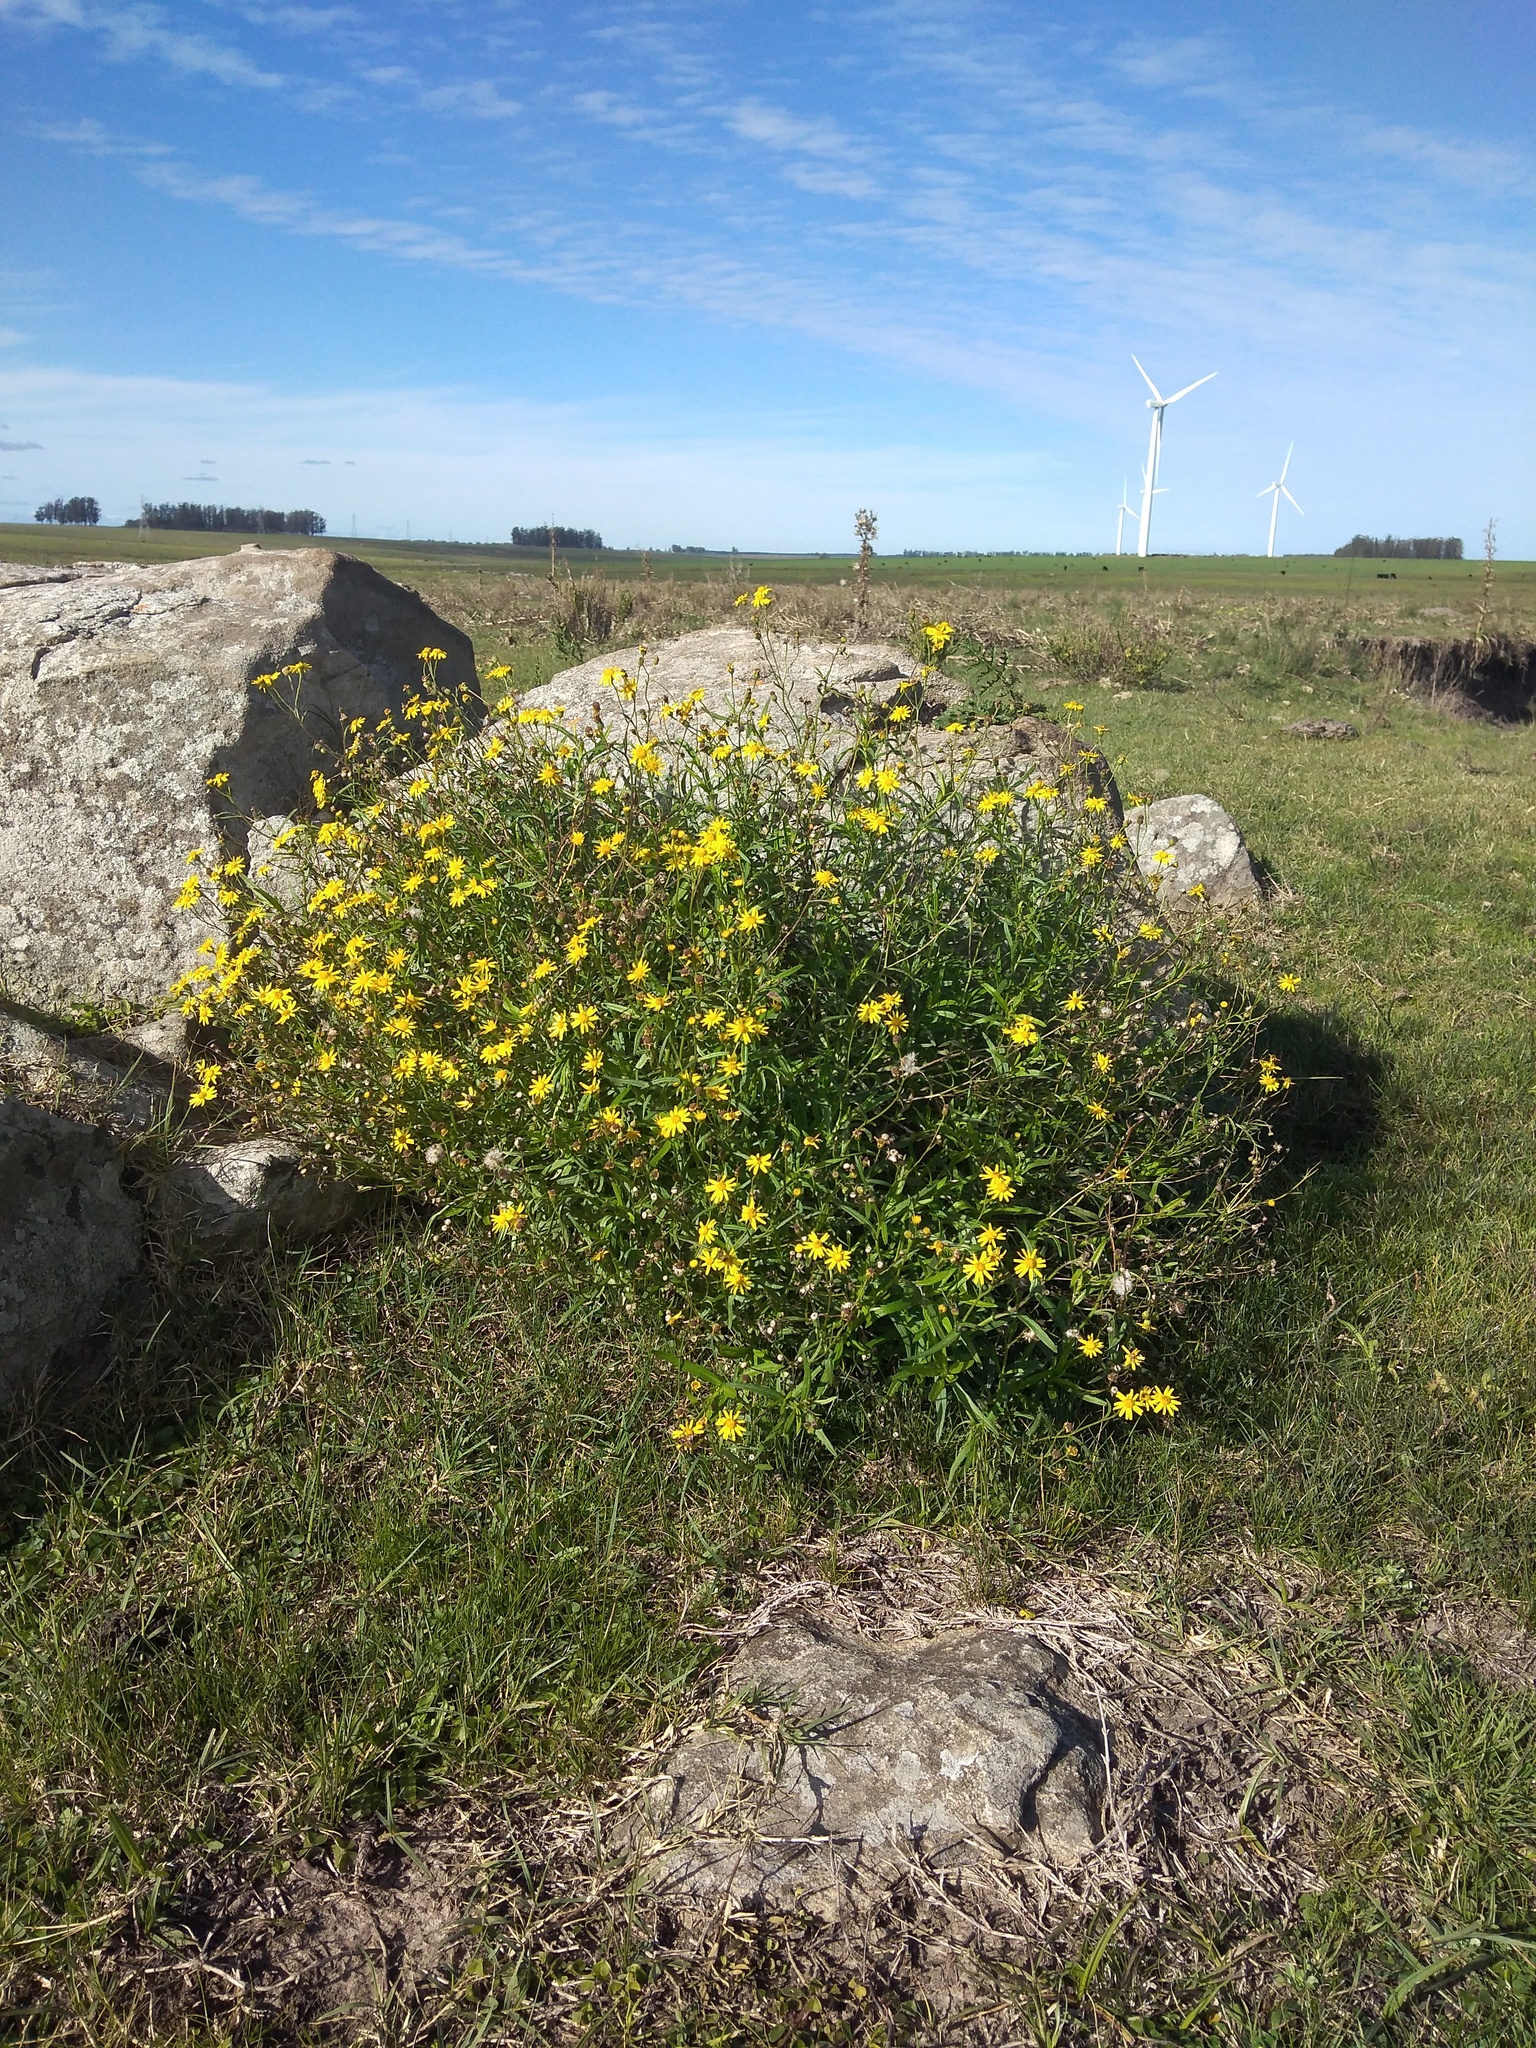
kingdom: Plantae
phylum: Tracheophyta
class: Magnoliopsida
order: Asterales
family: Asteraceae
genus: Senecio
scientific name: Senecio madagascariensis
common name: Madagascar ragwort
